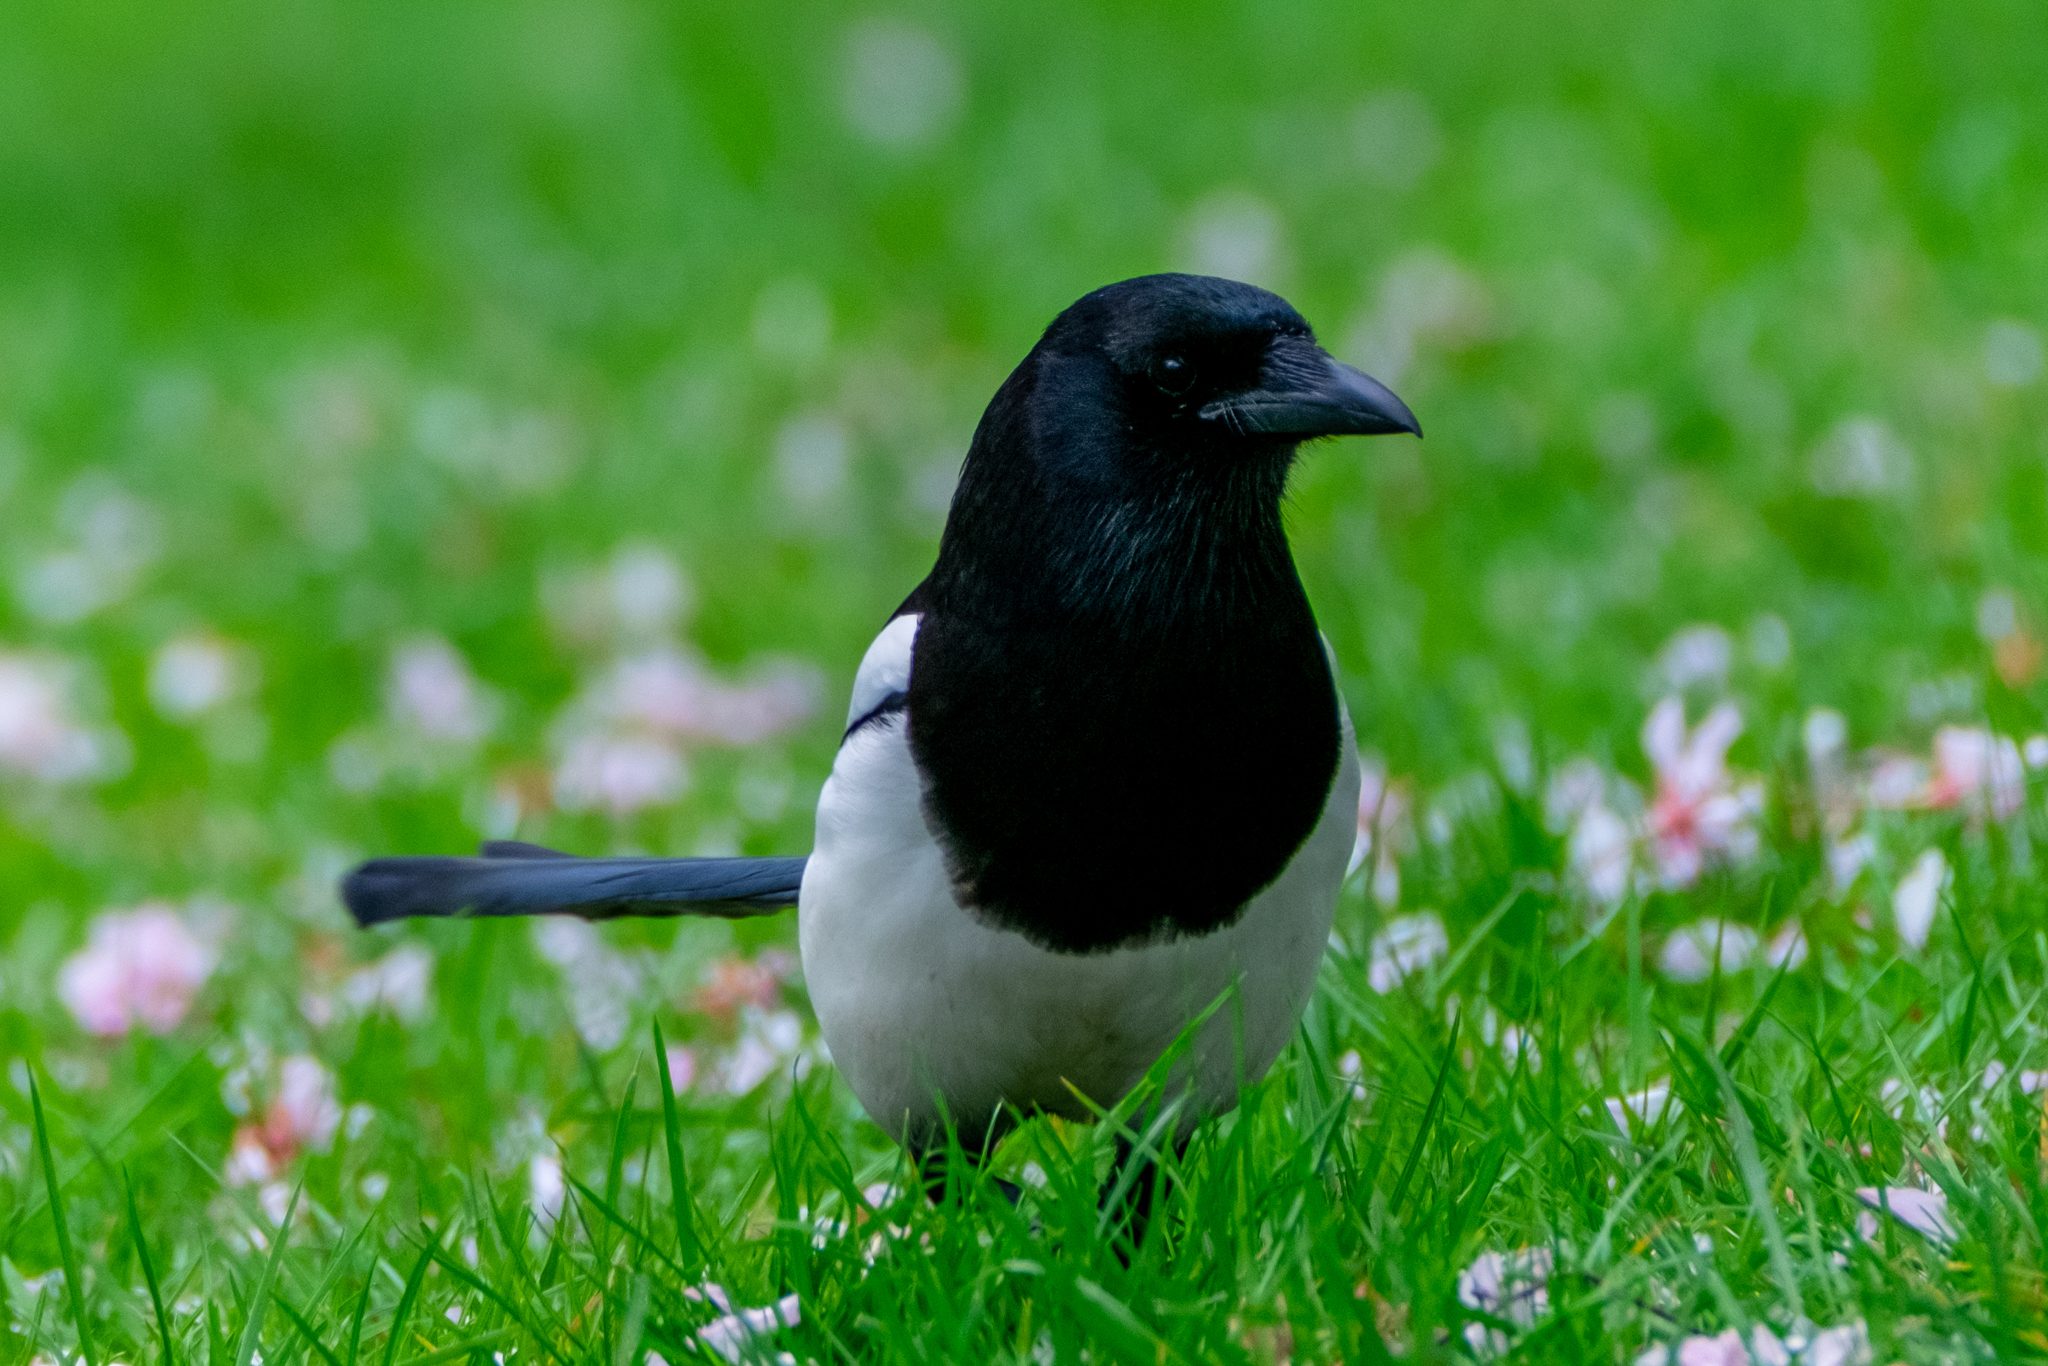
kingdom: Animalia
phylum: Chordata
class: Aves
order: Passeriformes
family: Corvidae
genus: Pica
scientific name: Pica pica
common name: Eurasian magpie
